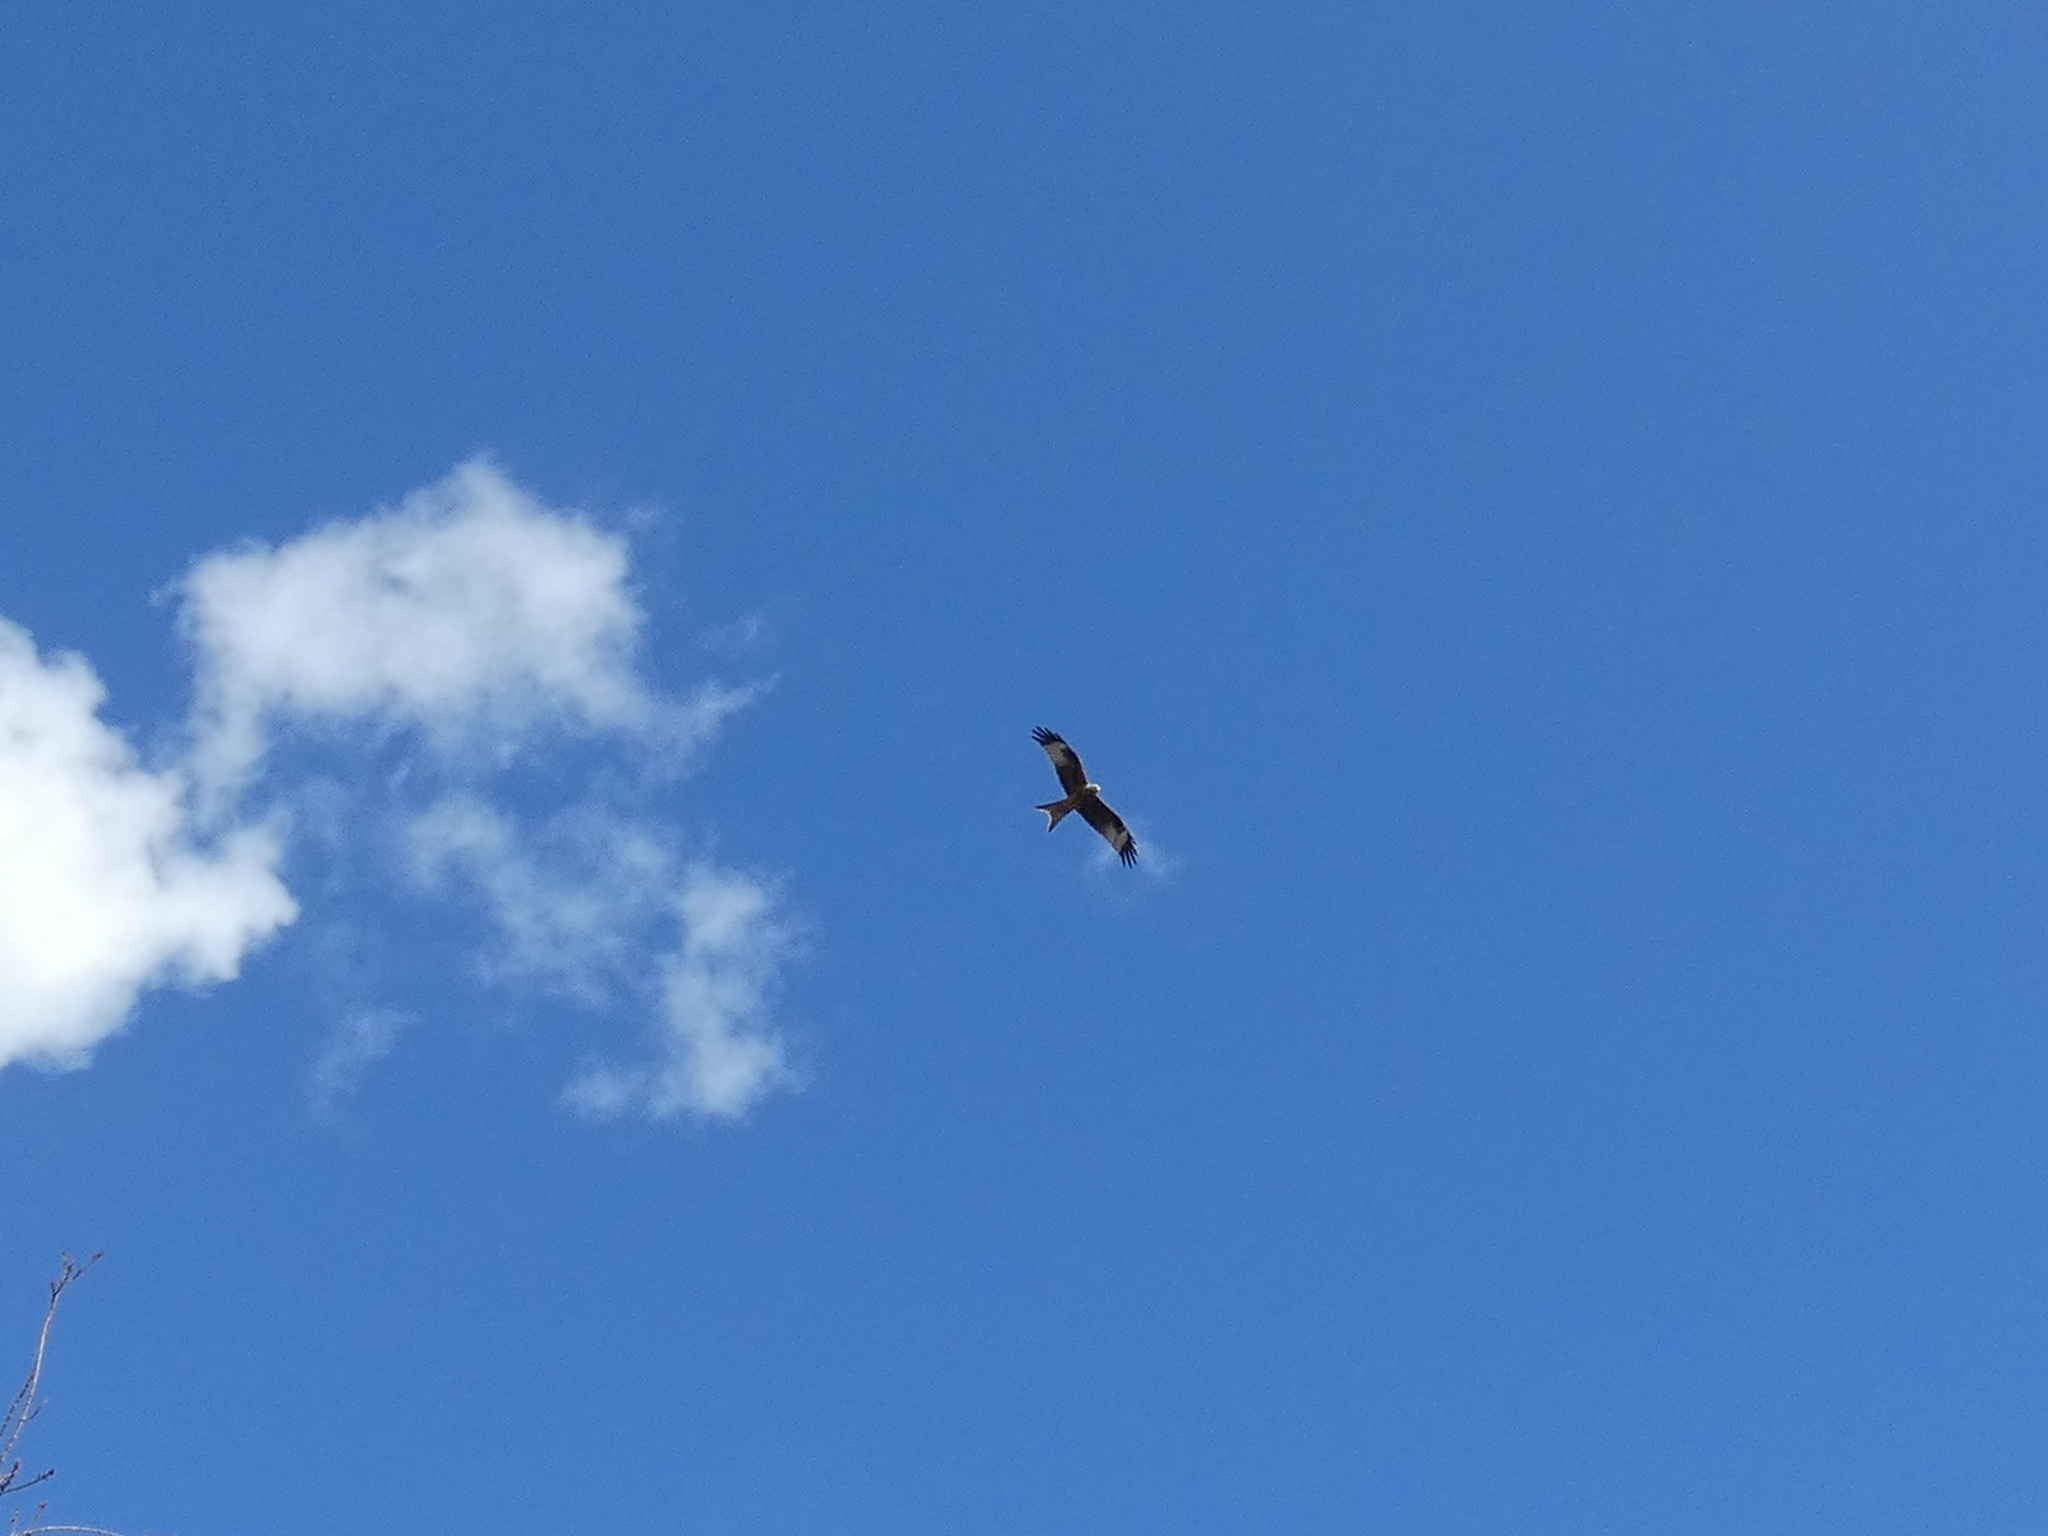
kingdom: Animalia
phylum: Chordata
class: Aves
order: Accipitriformes
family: Accipitridae
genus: Milvus
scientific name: Milvus milvus
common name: Red kite
